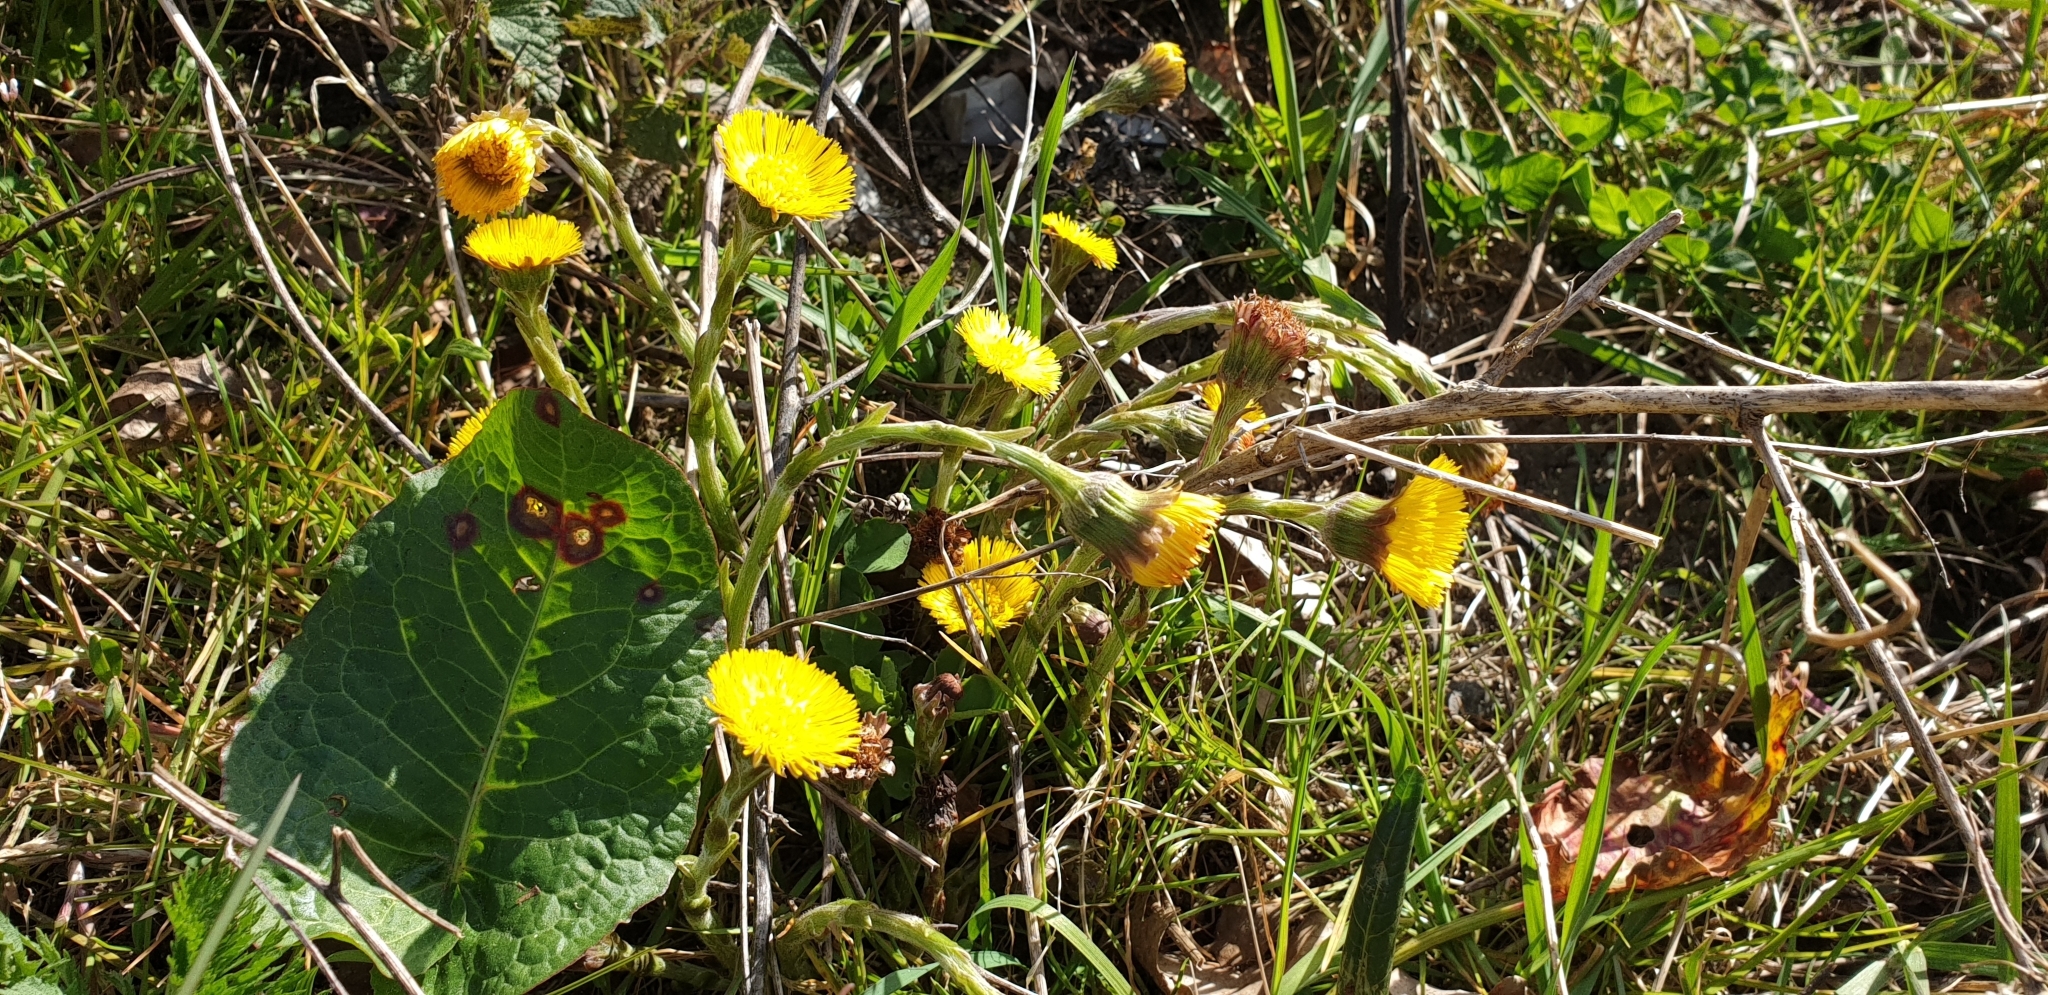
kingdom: Plantae
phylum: Tracheophyta
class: Magnoliopsida
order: Asterales
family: Asteraceae
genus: Tussilago
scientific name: Tussilago farfara
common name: Coltsfoot
